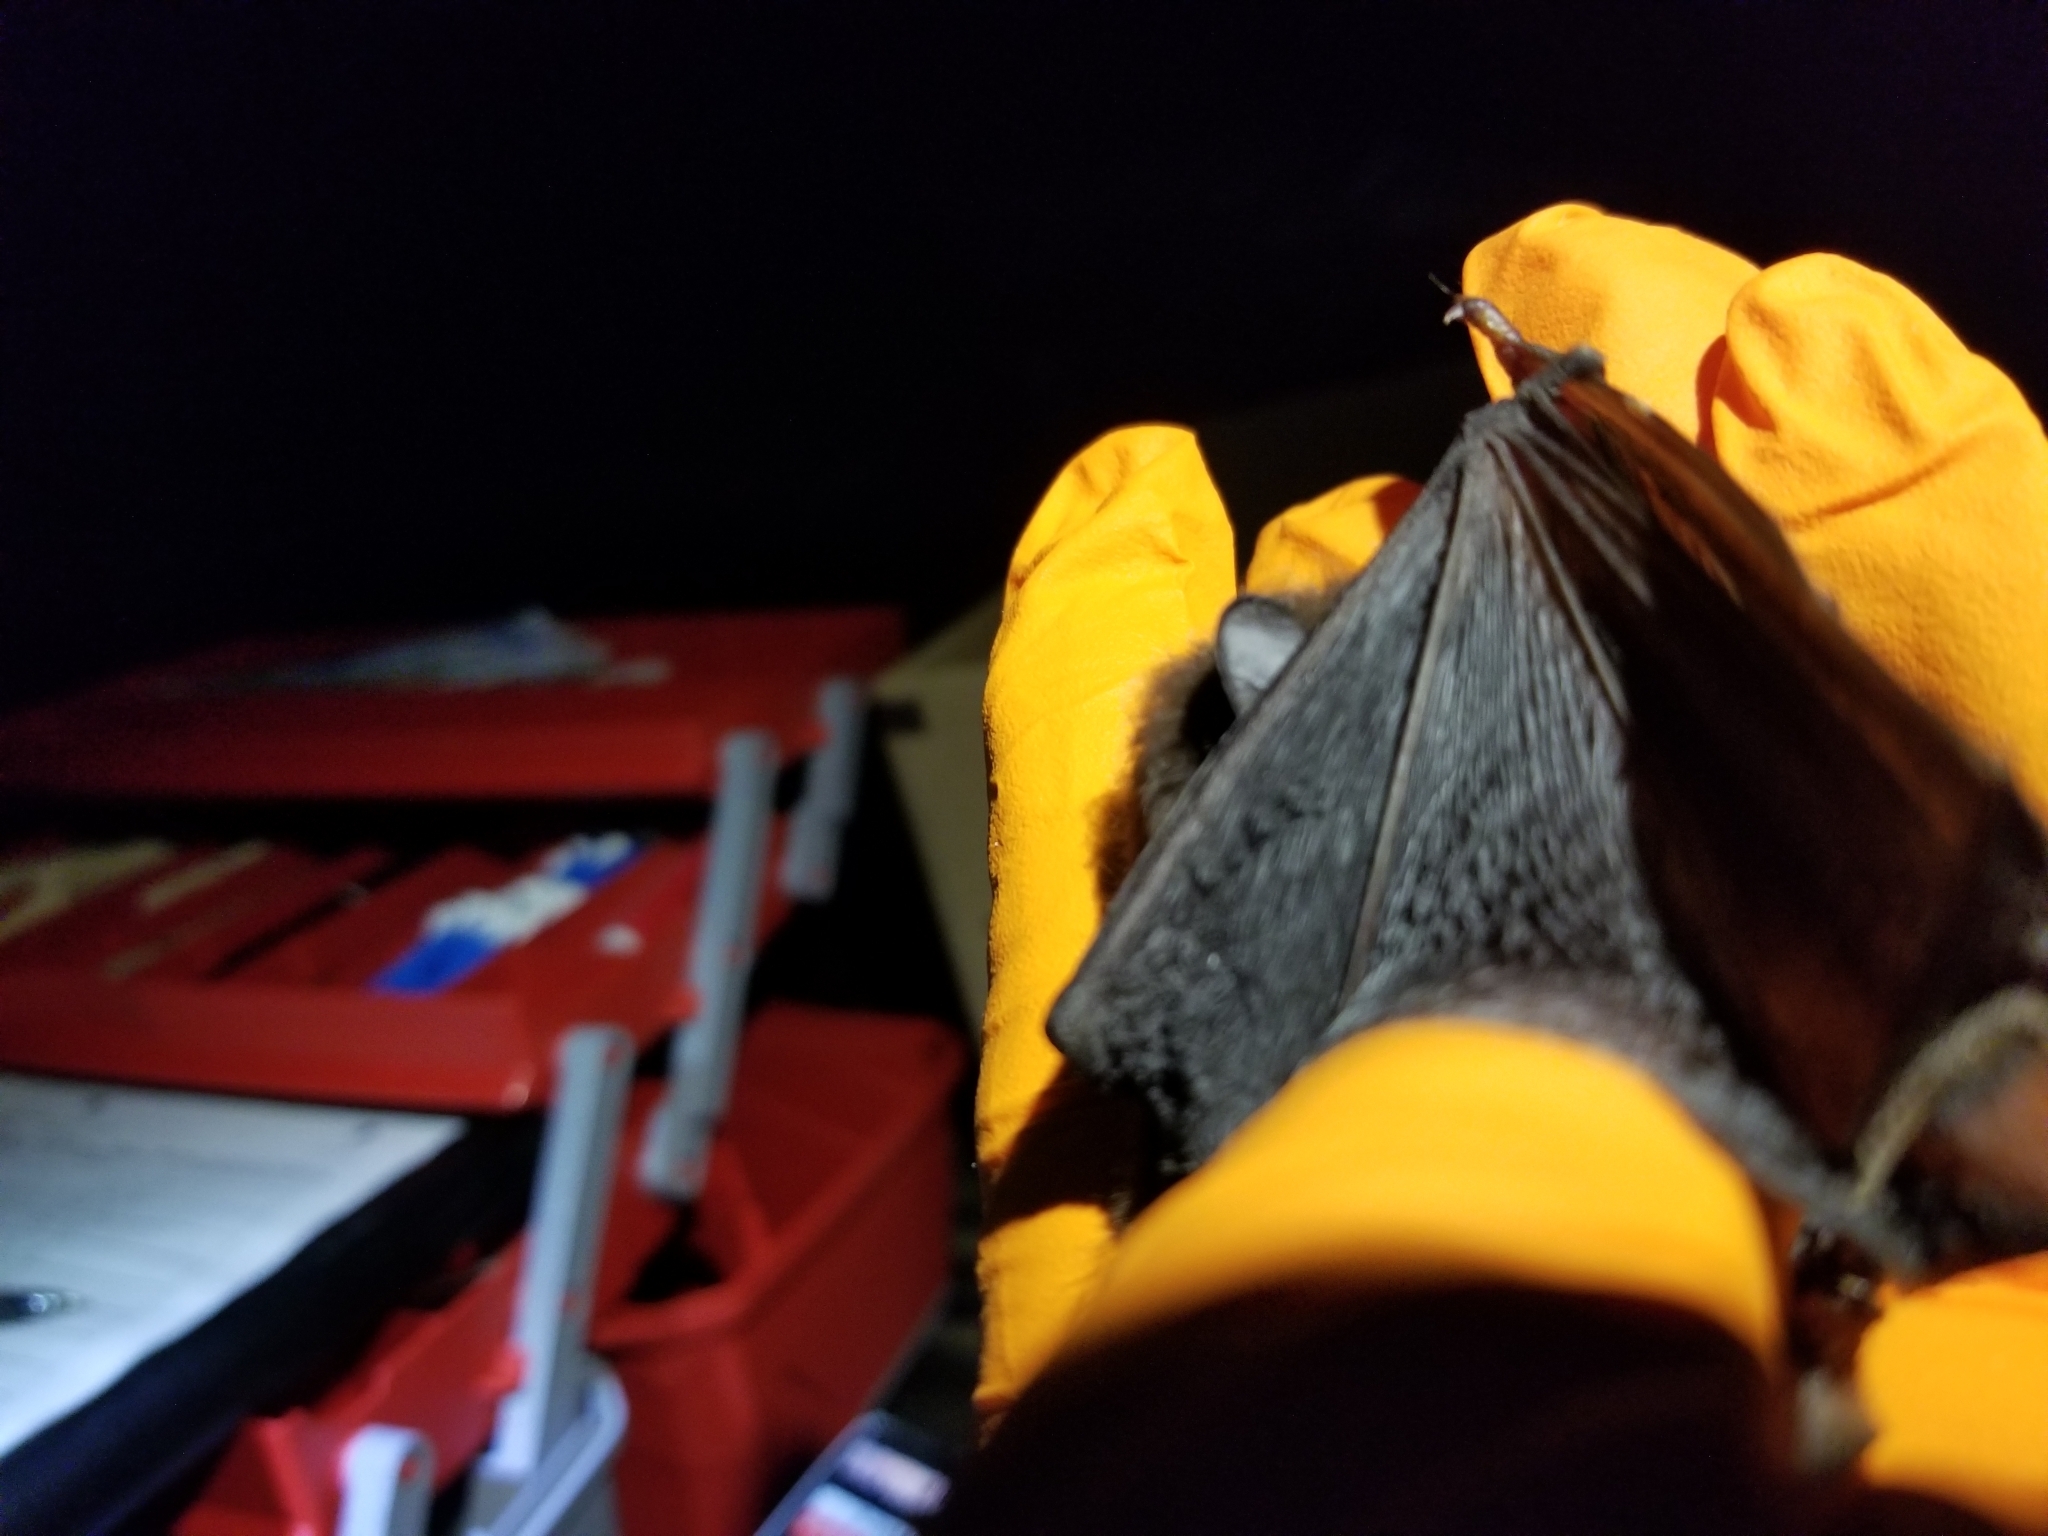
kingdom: Animalia
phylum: Chordata
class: Mammalia
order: Chiroptera
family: Vespertilionidae
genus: Lasionycteris
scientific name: Lasionycteris noctivagans
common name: Silver-haired bat
